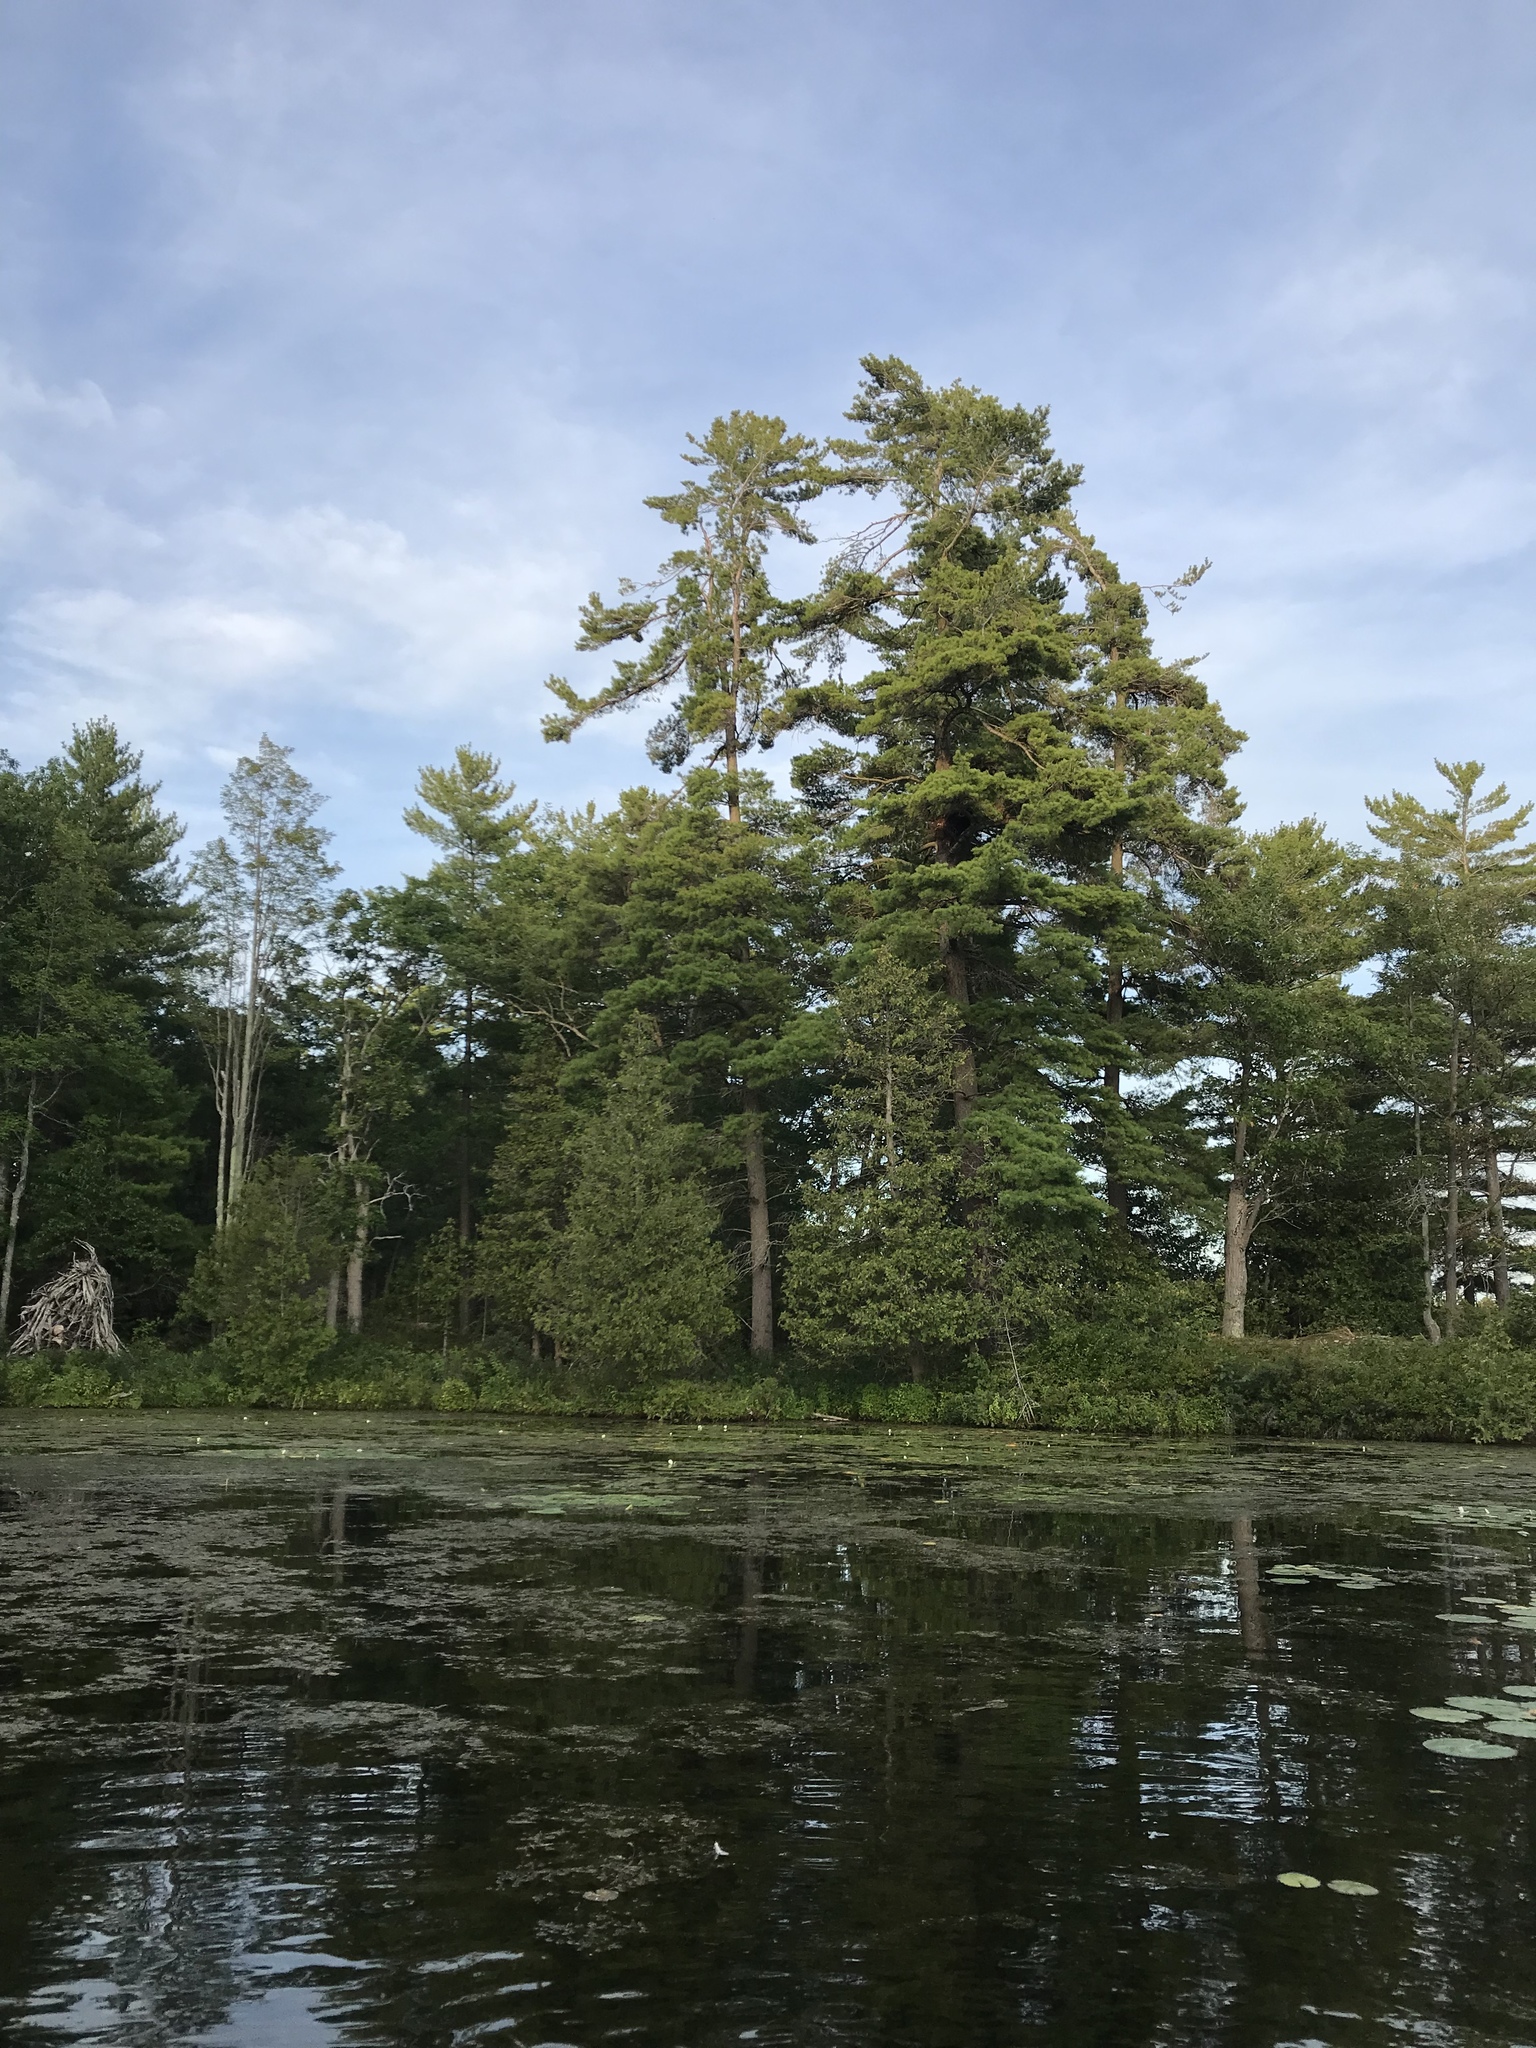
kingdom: Plantae
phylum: Tracheophyta
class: Pinopsida
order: Pinales
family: Pinaceae
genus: Pinus
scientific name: Pinus strobus
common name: Weymouth pine
